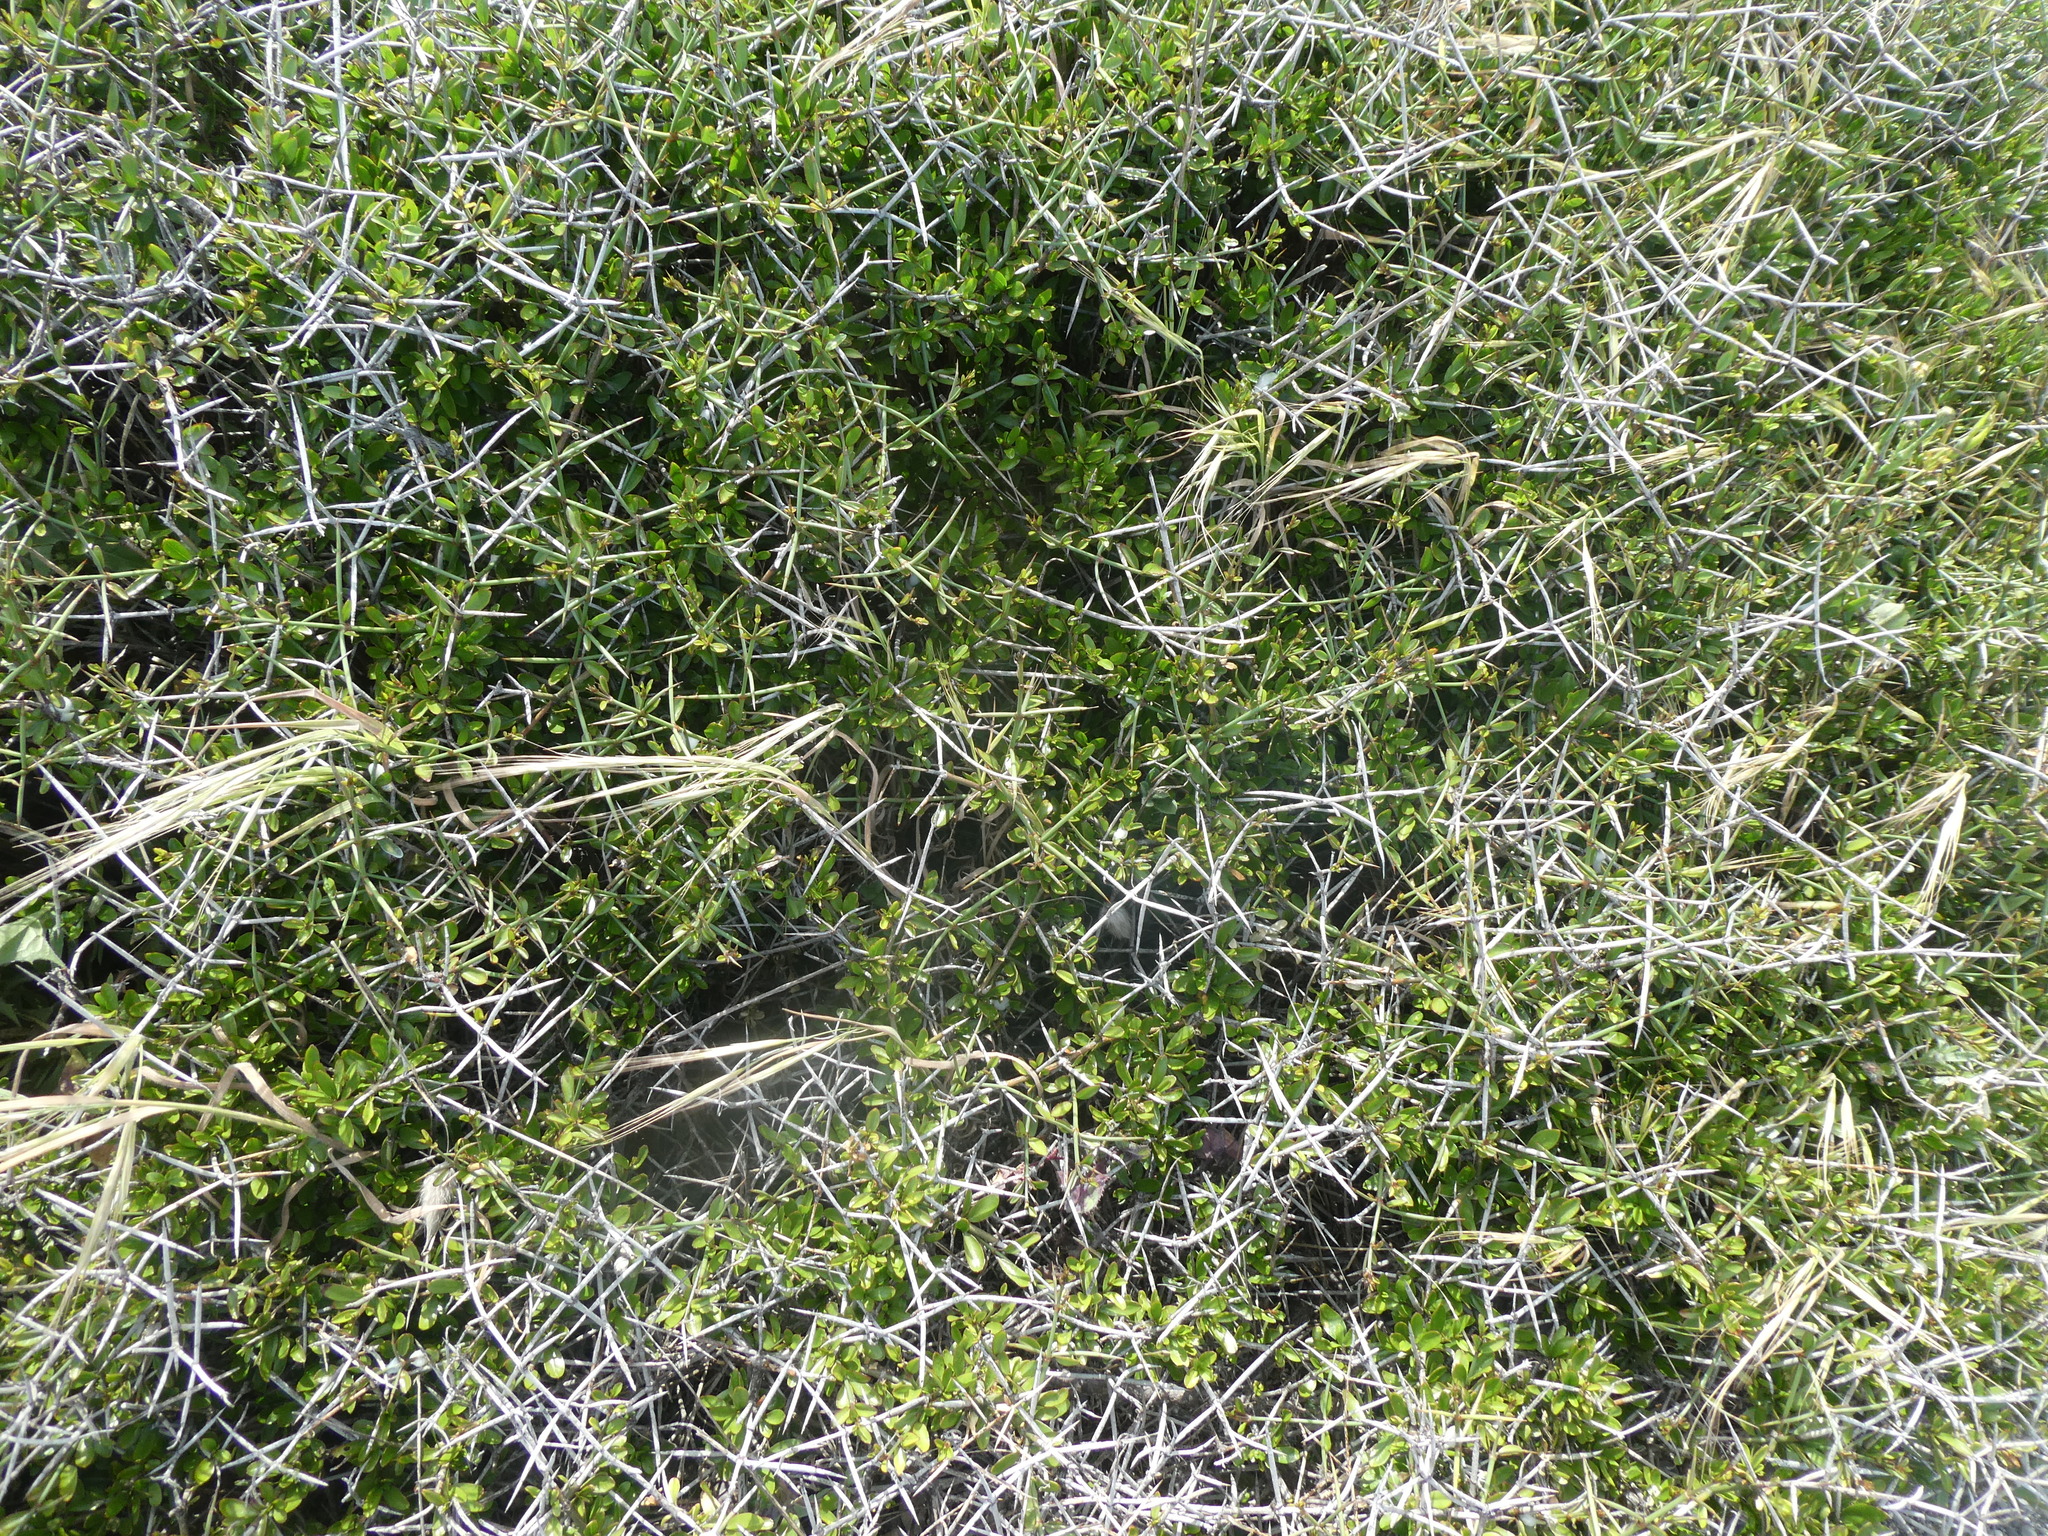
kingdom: Plantae
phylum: Tracheophyta
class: Magnoliopsida
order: Rosales
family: Rhamnaceae
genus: Discaria
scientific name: Discaria toumatou
